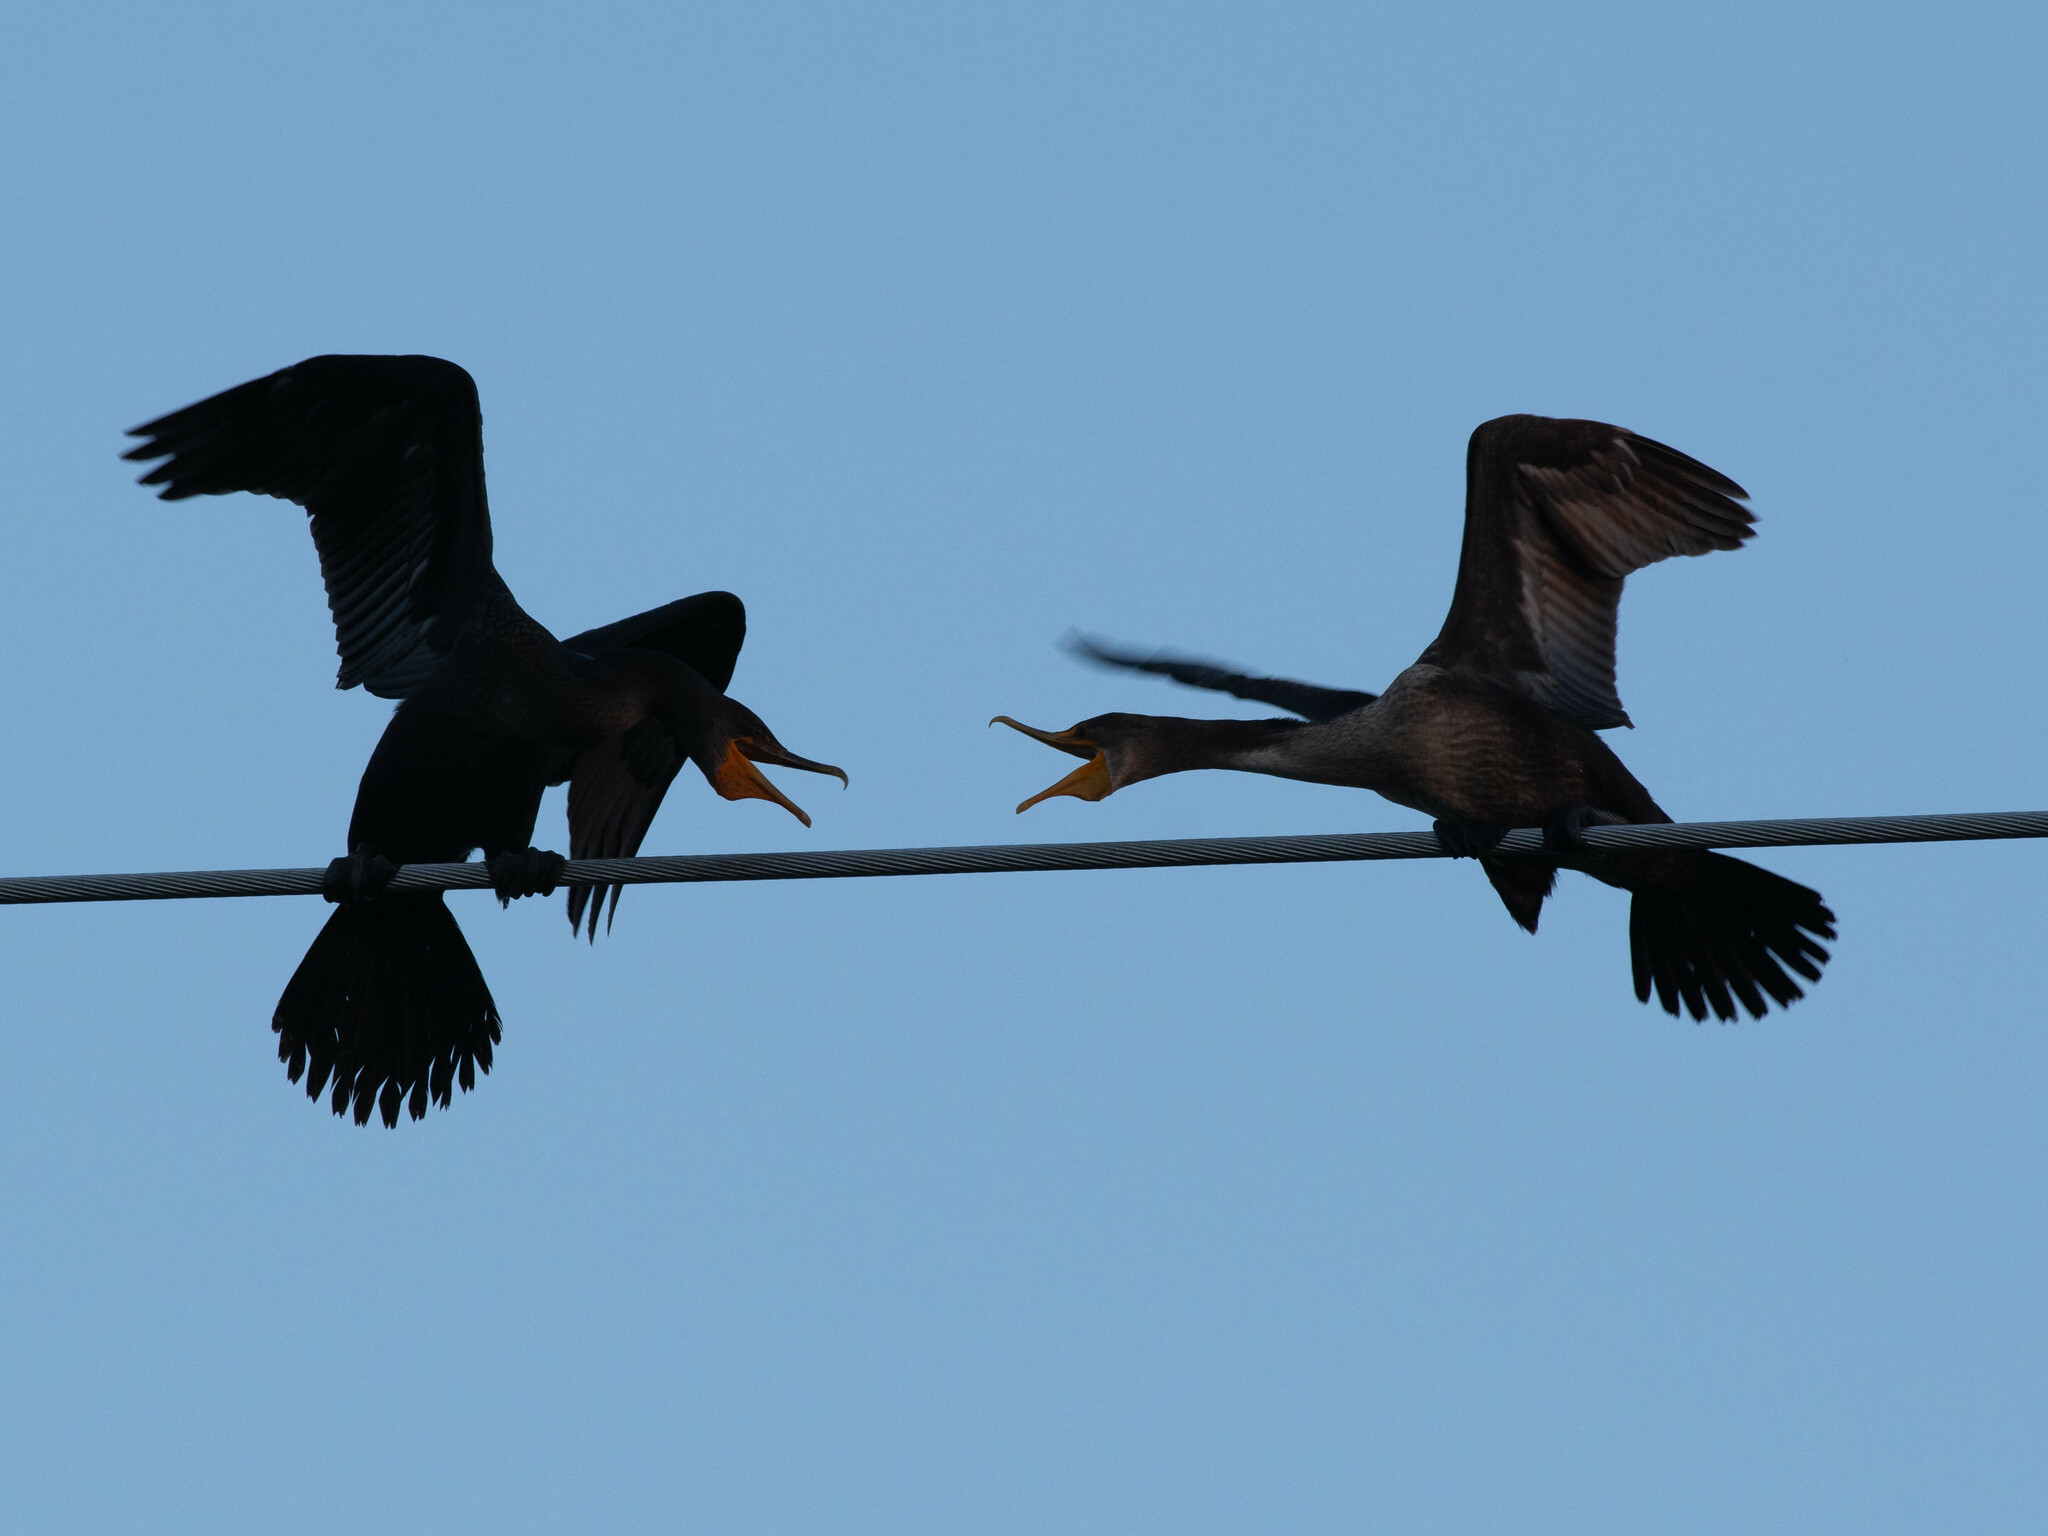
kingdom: Animalia
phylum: Chordata
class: Aves
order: Suliformes
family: Phalacrocoracidae
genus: Phalacrocorax
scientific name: Phalacrocorax auritus
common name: Double-crested cormorant
